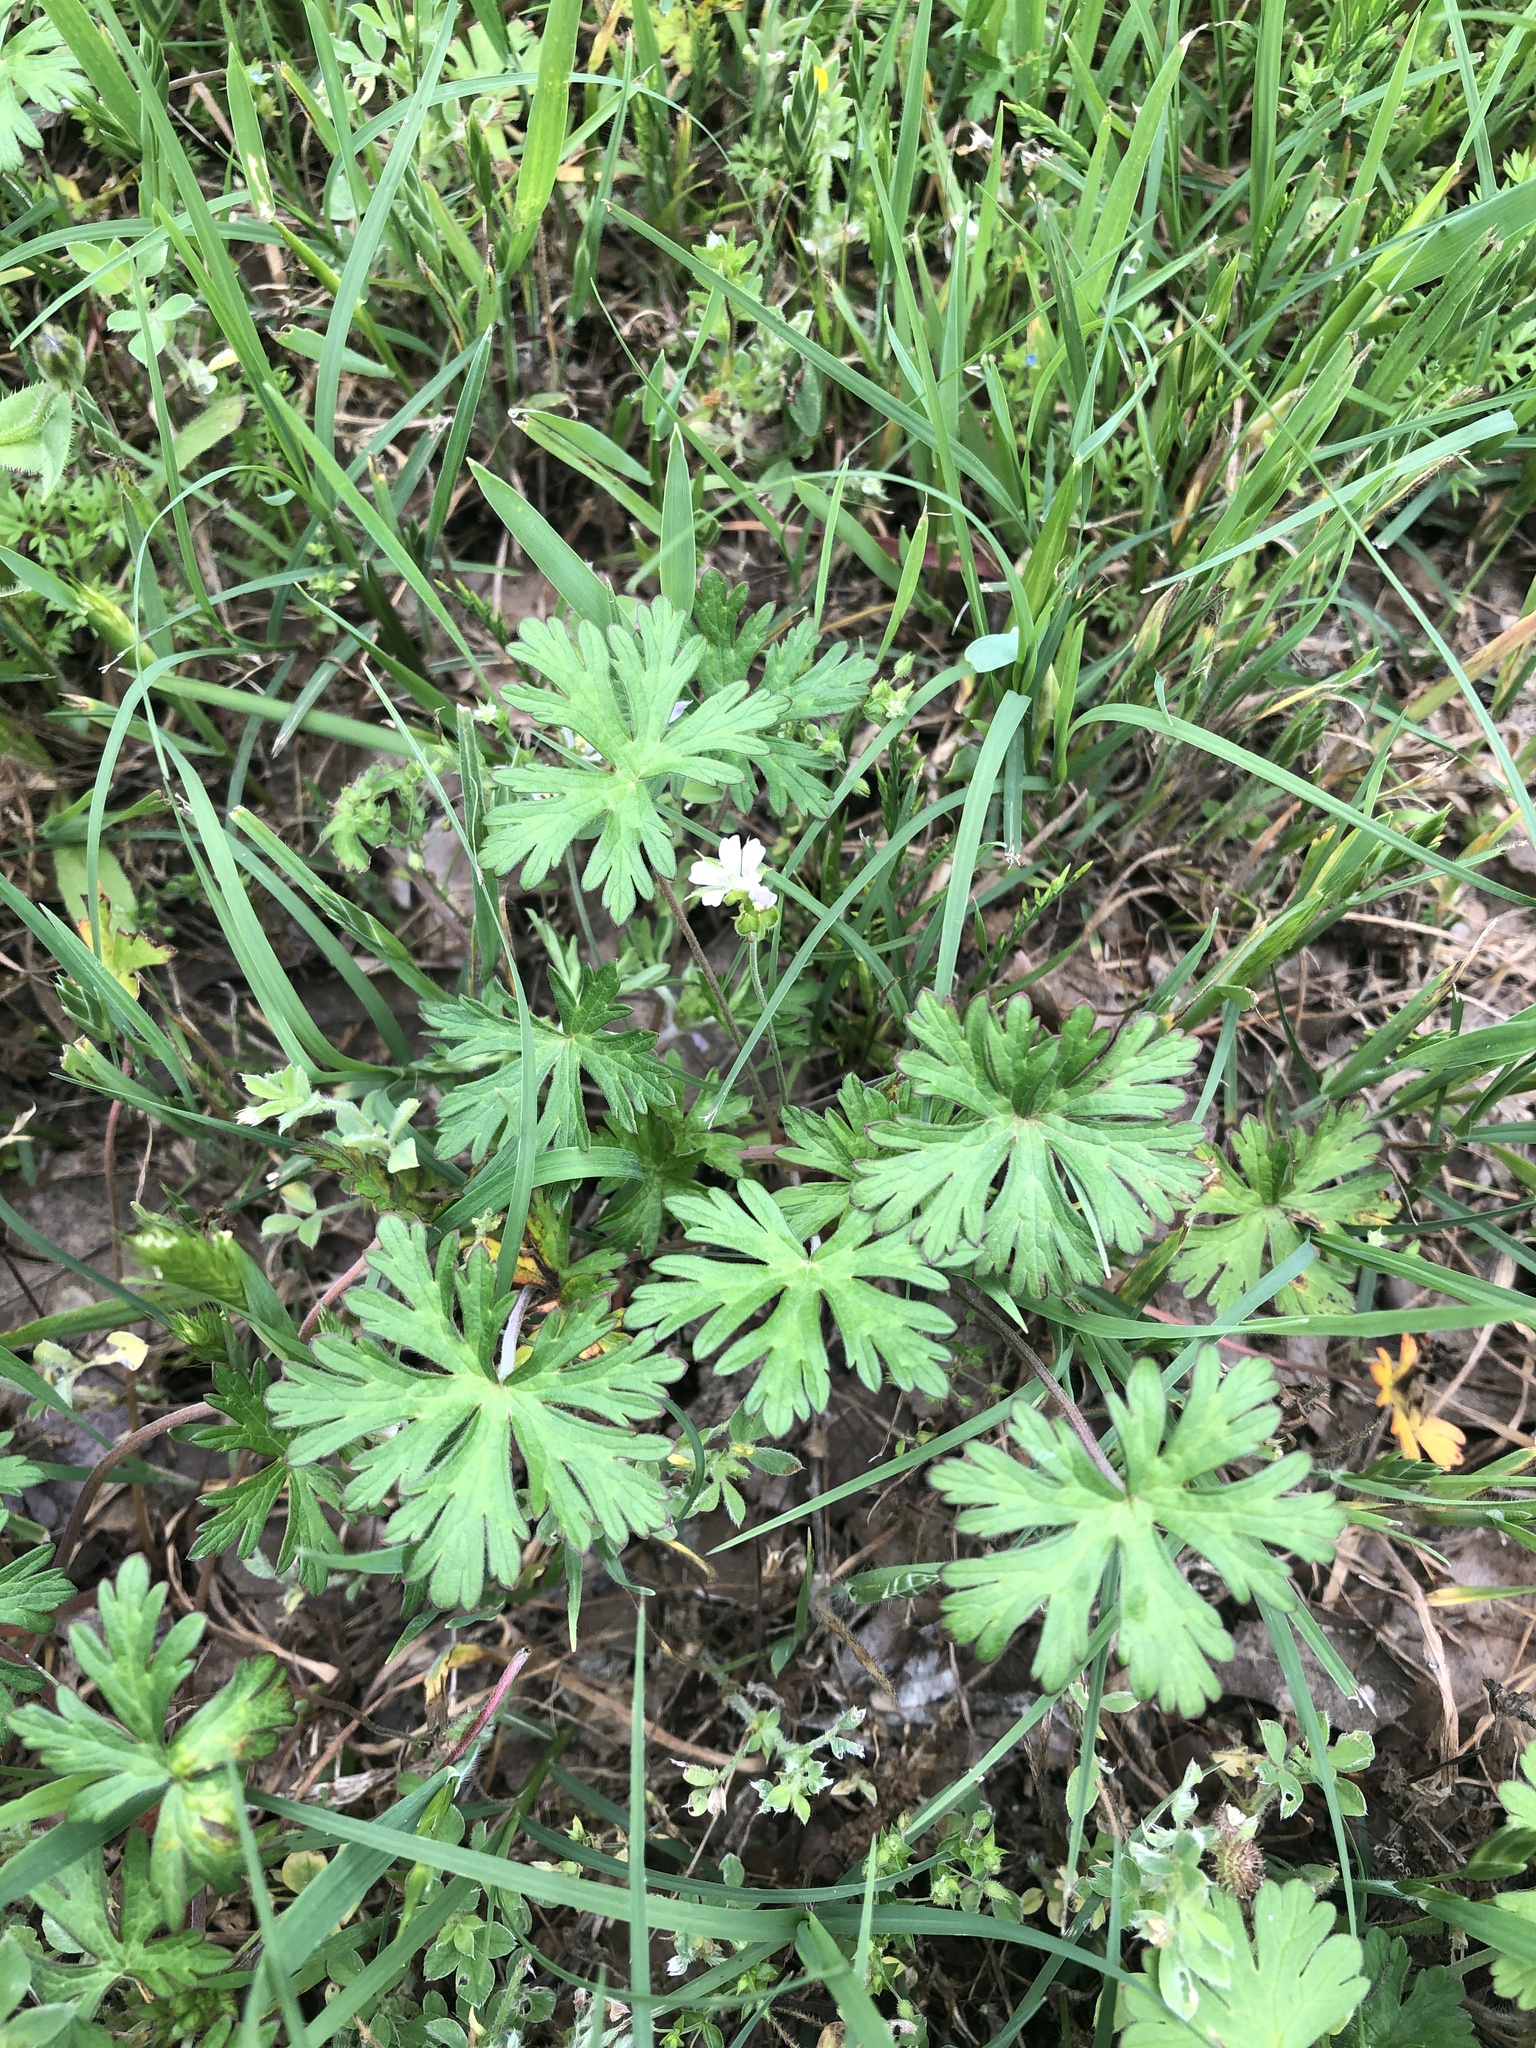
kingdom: Plantae
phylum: Tracheophyta
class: Magnoliopsida
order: Geraniales
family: Geraniaceae
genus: Geranium
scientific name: Geranium carolinianum
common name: Carolina crane's-bill
